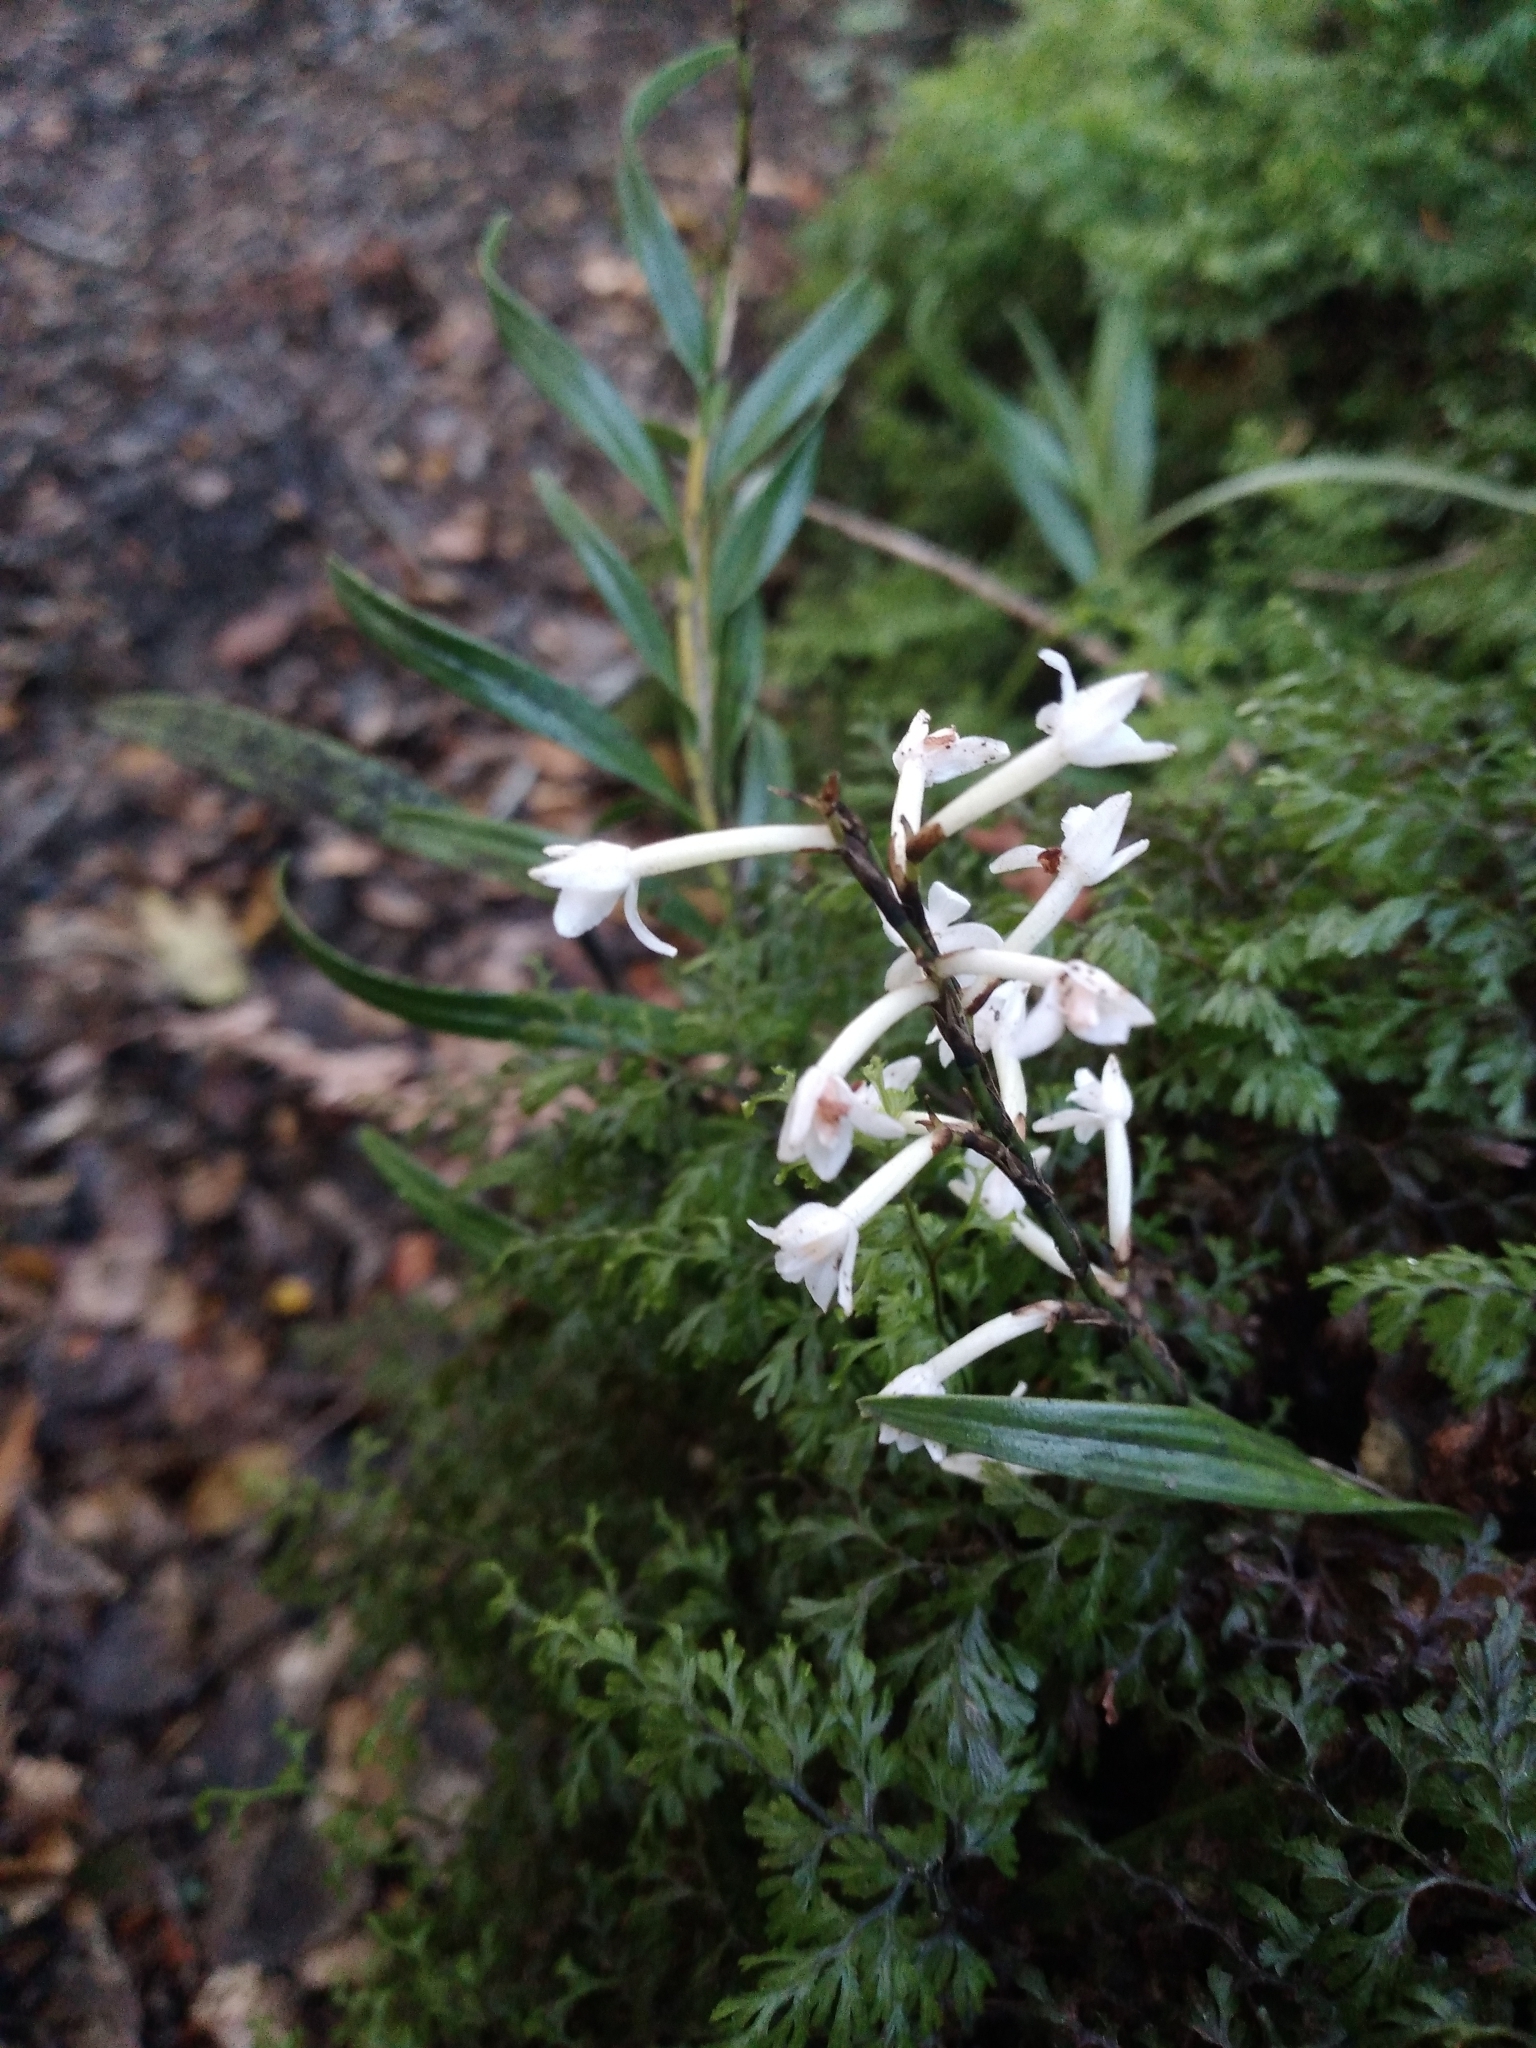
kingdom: Plantae
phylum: Tracheophyta
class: Liliopsida
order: Asparagales
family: Orchidaceae
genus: Earina
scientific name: Earina autumnalis
